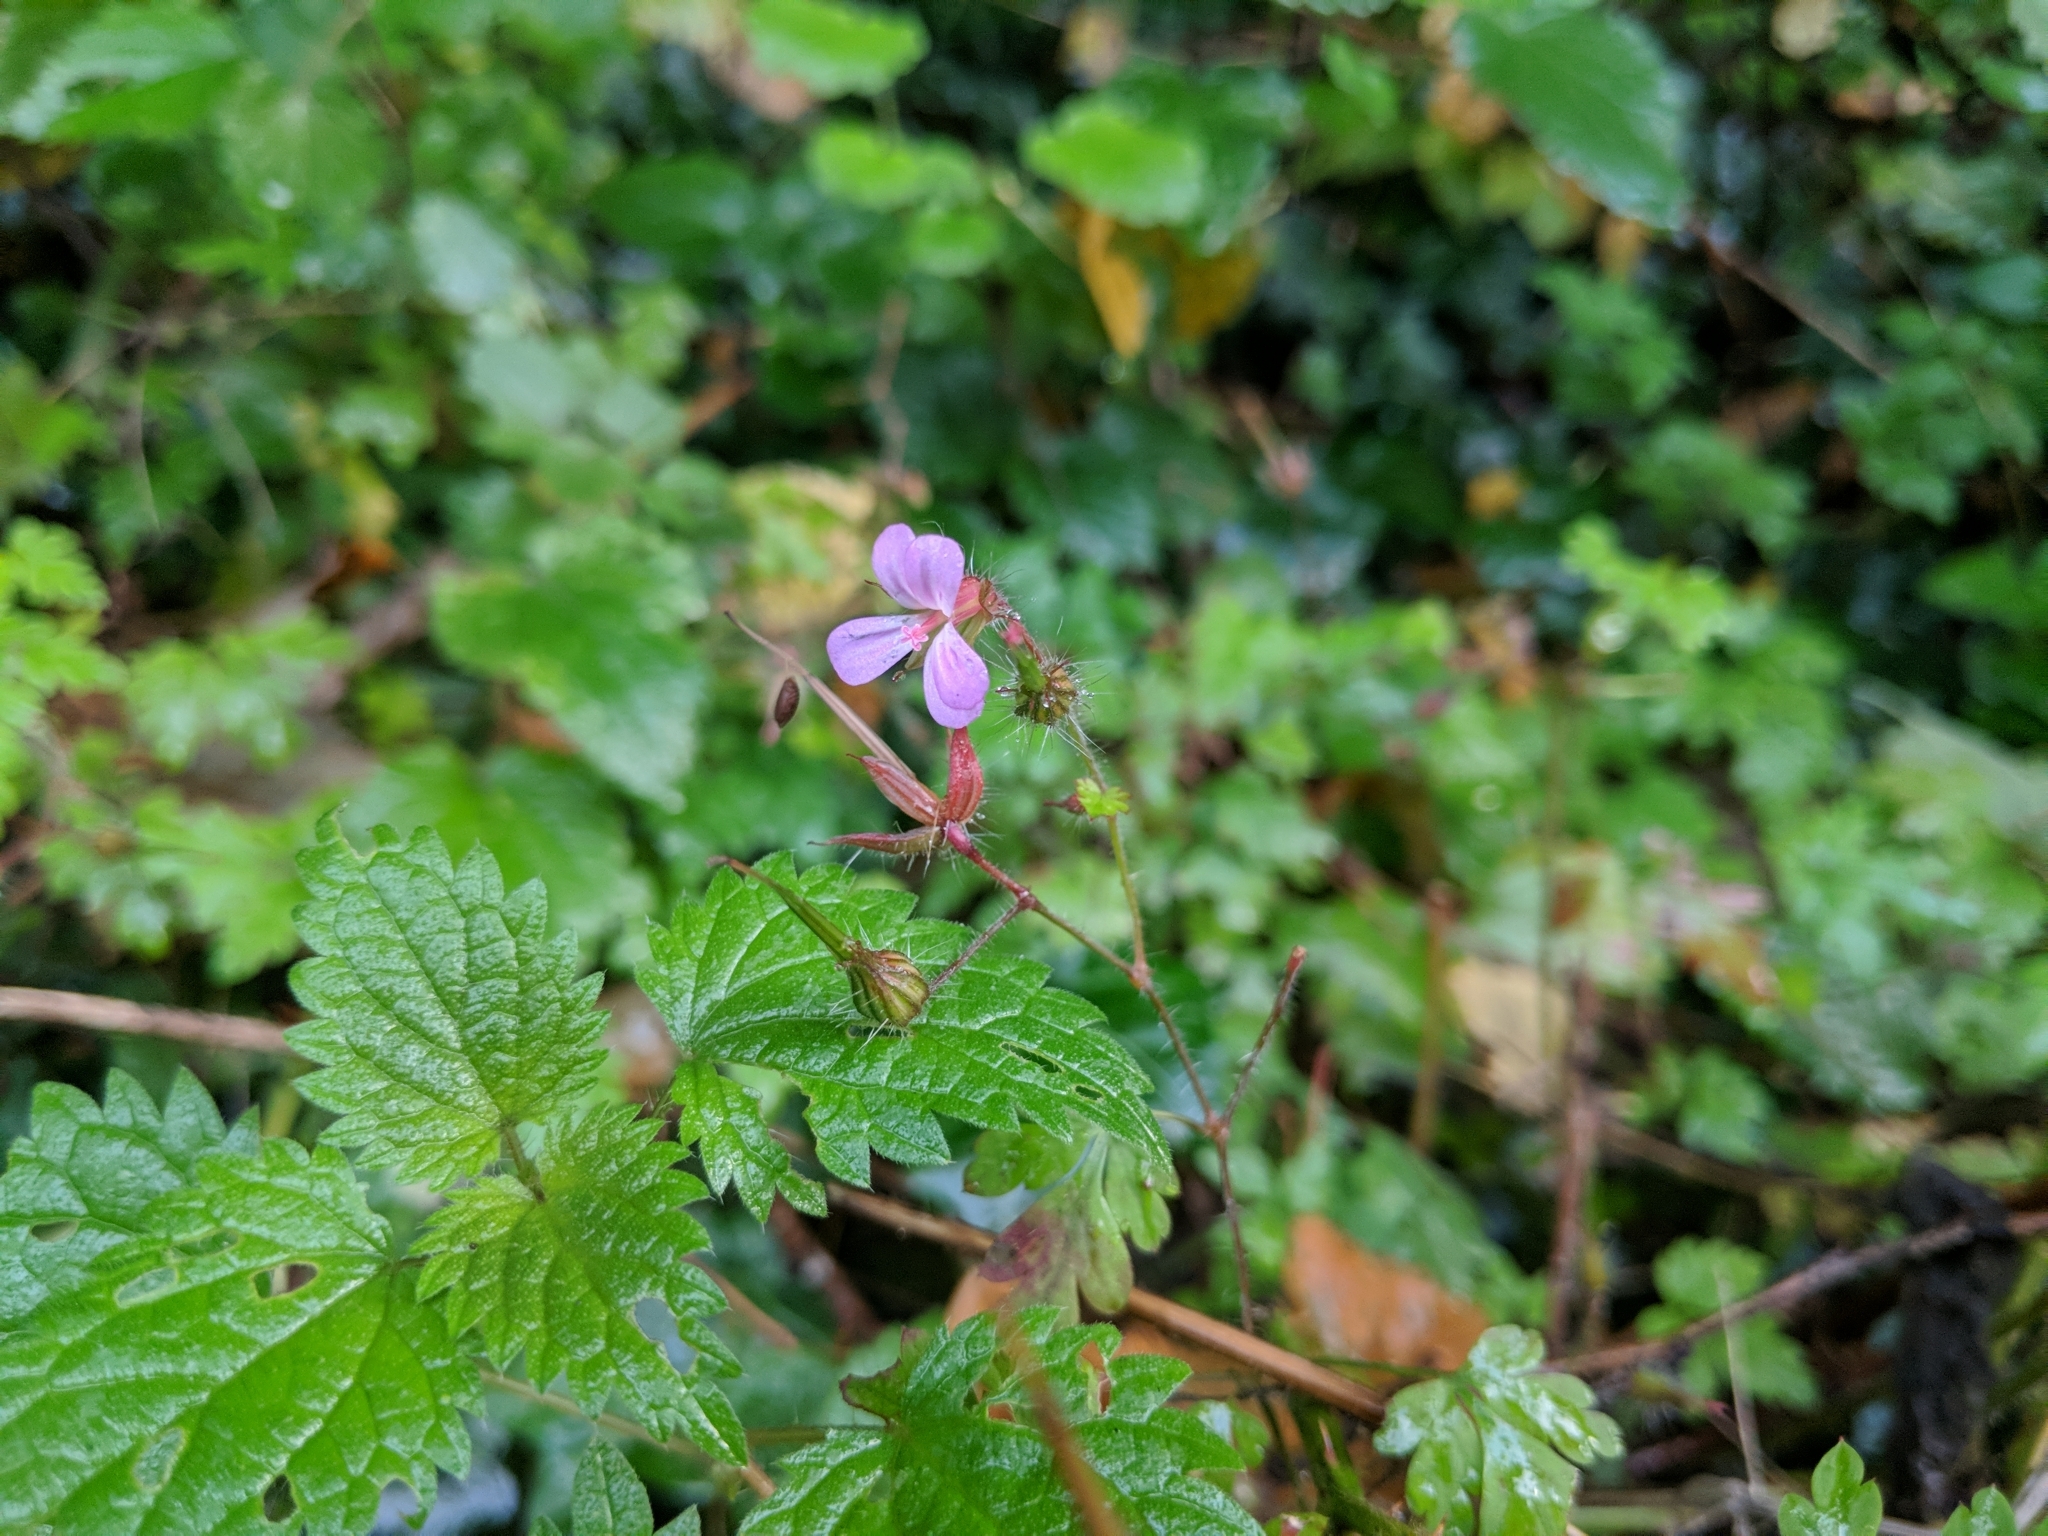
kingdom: Plantae
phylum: Tracheophyta
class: Magnoliopsida
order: Geraniales
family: Geraniaceae
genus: Geranium
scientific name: Geranium robertianum
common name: Herb-robert
